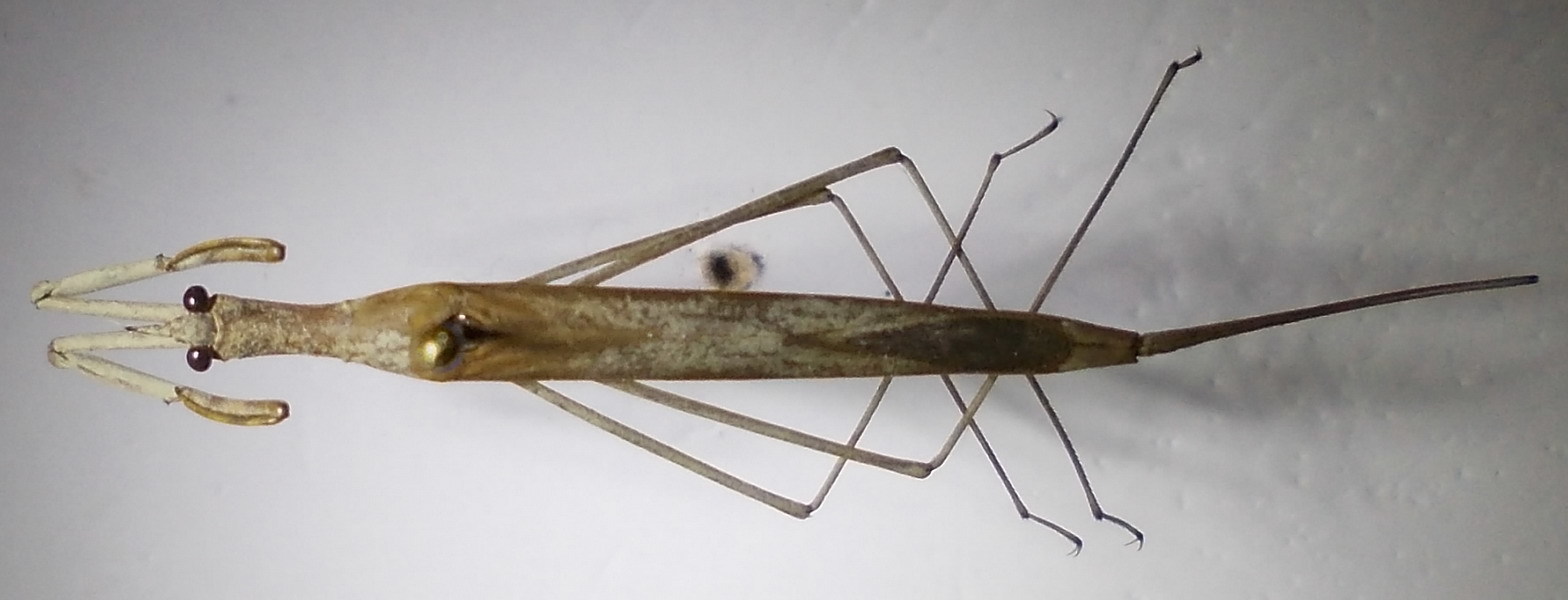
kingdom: Animalia
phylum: Arthropoda
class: Insecta
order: Hemiptera
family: Nepidae
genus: Ranatra
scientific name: Ranatra unicolor
